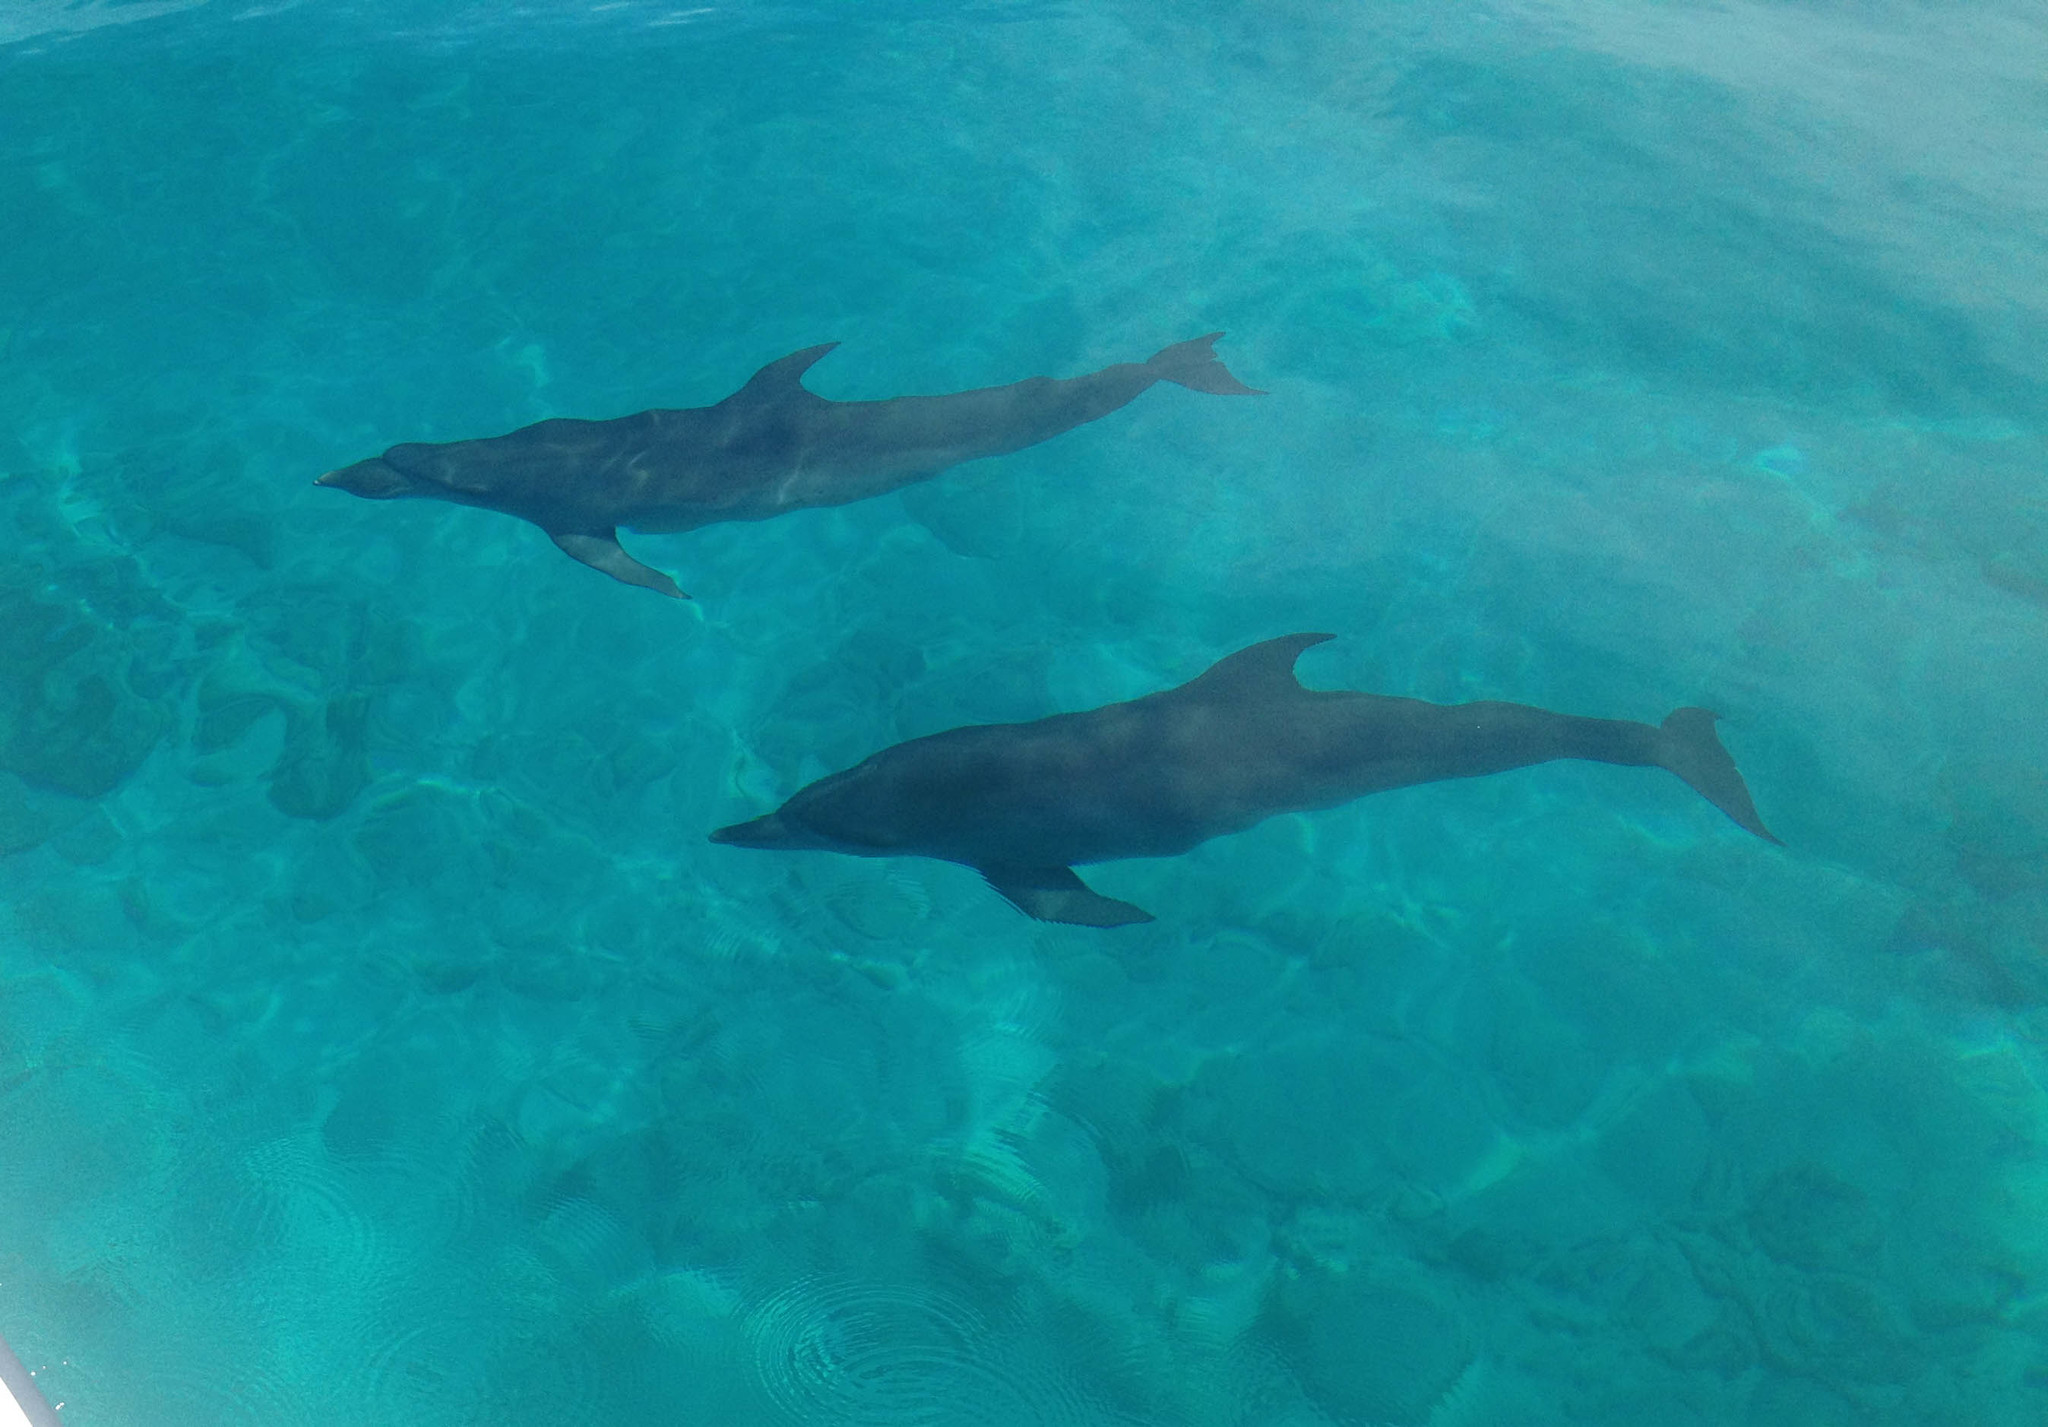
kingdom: Animalia
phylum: Chordata
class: Mammalia
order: Cetacea
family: Delphinidae
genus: Tursiops
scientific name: Tursiops truncatus
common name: Bottlenose dolphin
